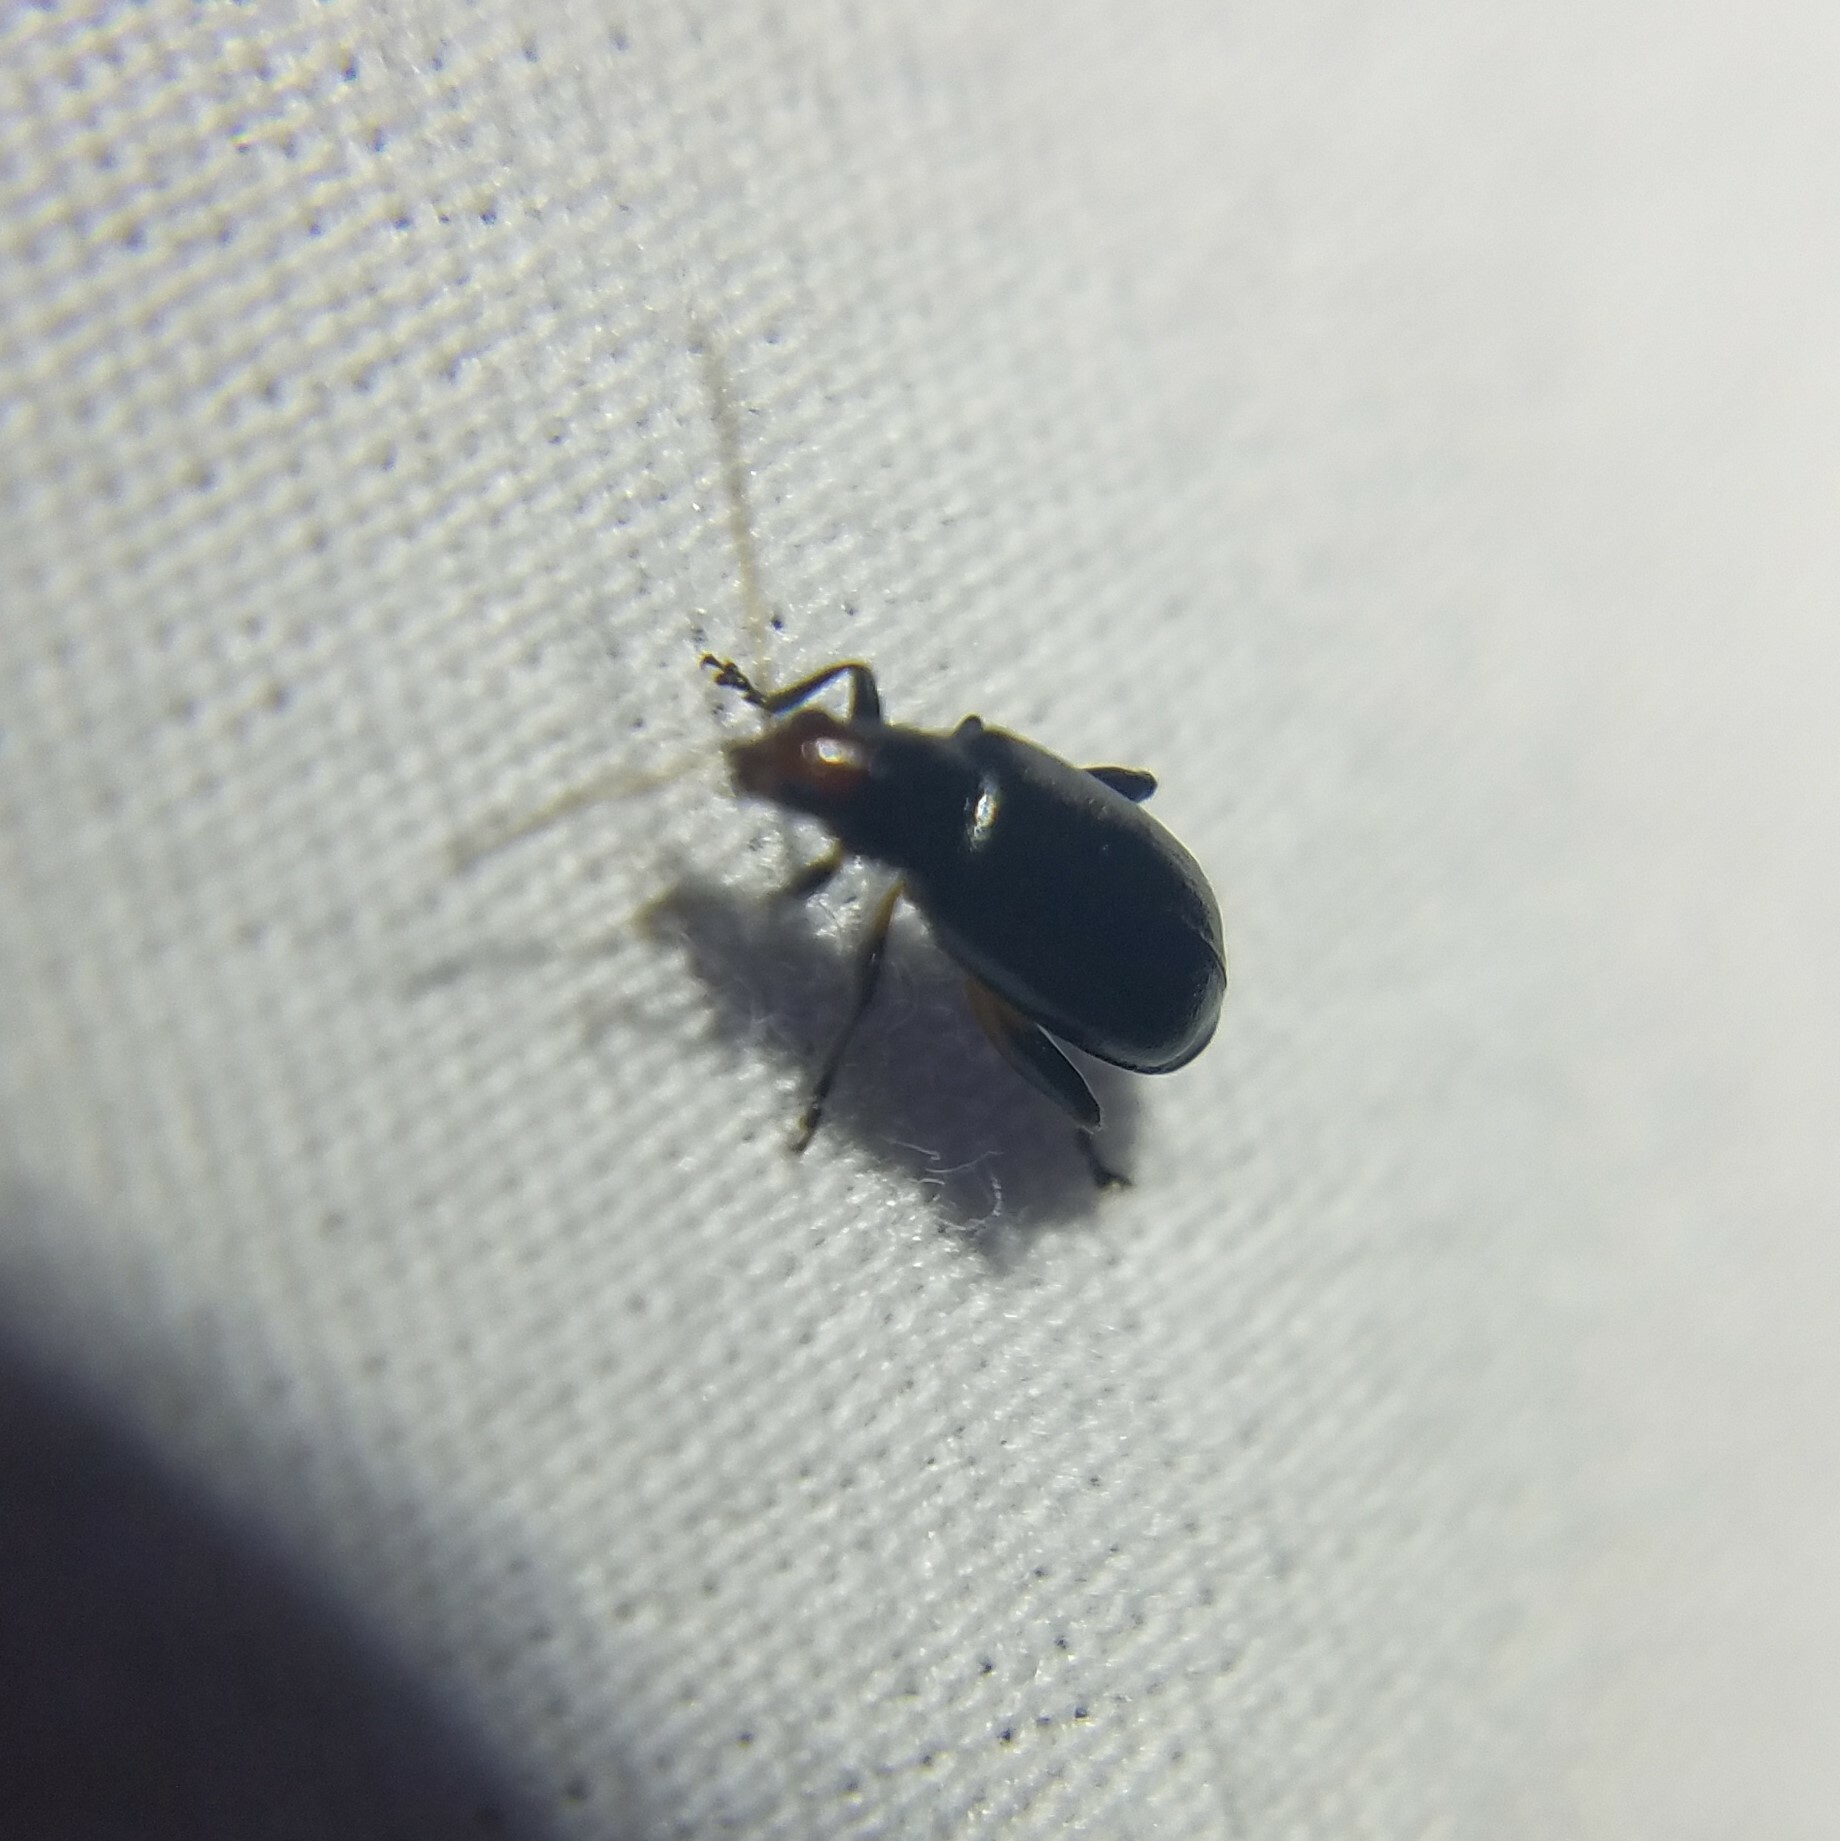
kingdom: Animalia
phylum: Arthropoda
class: Insecta
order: Coleoptera
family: Chrysomelidae
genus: Systena
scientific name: Systena frontalis
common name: Red-headed flea beetle
